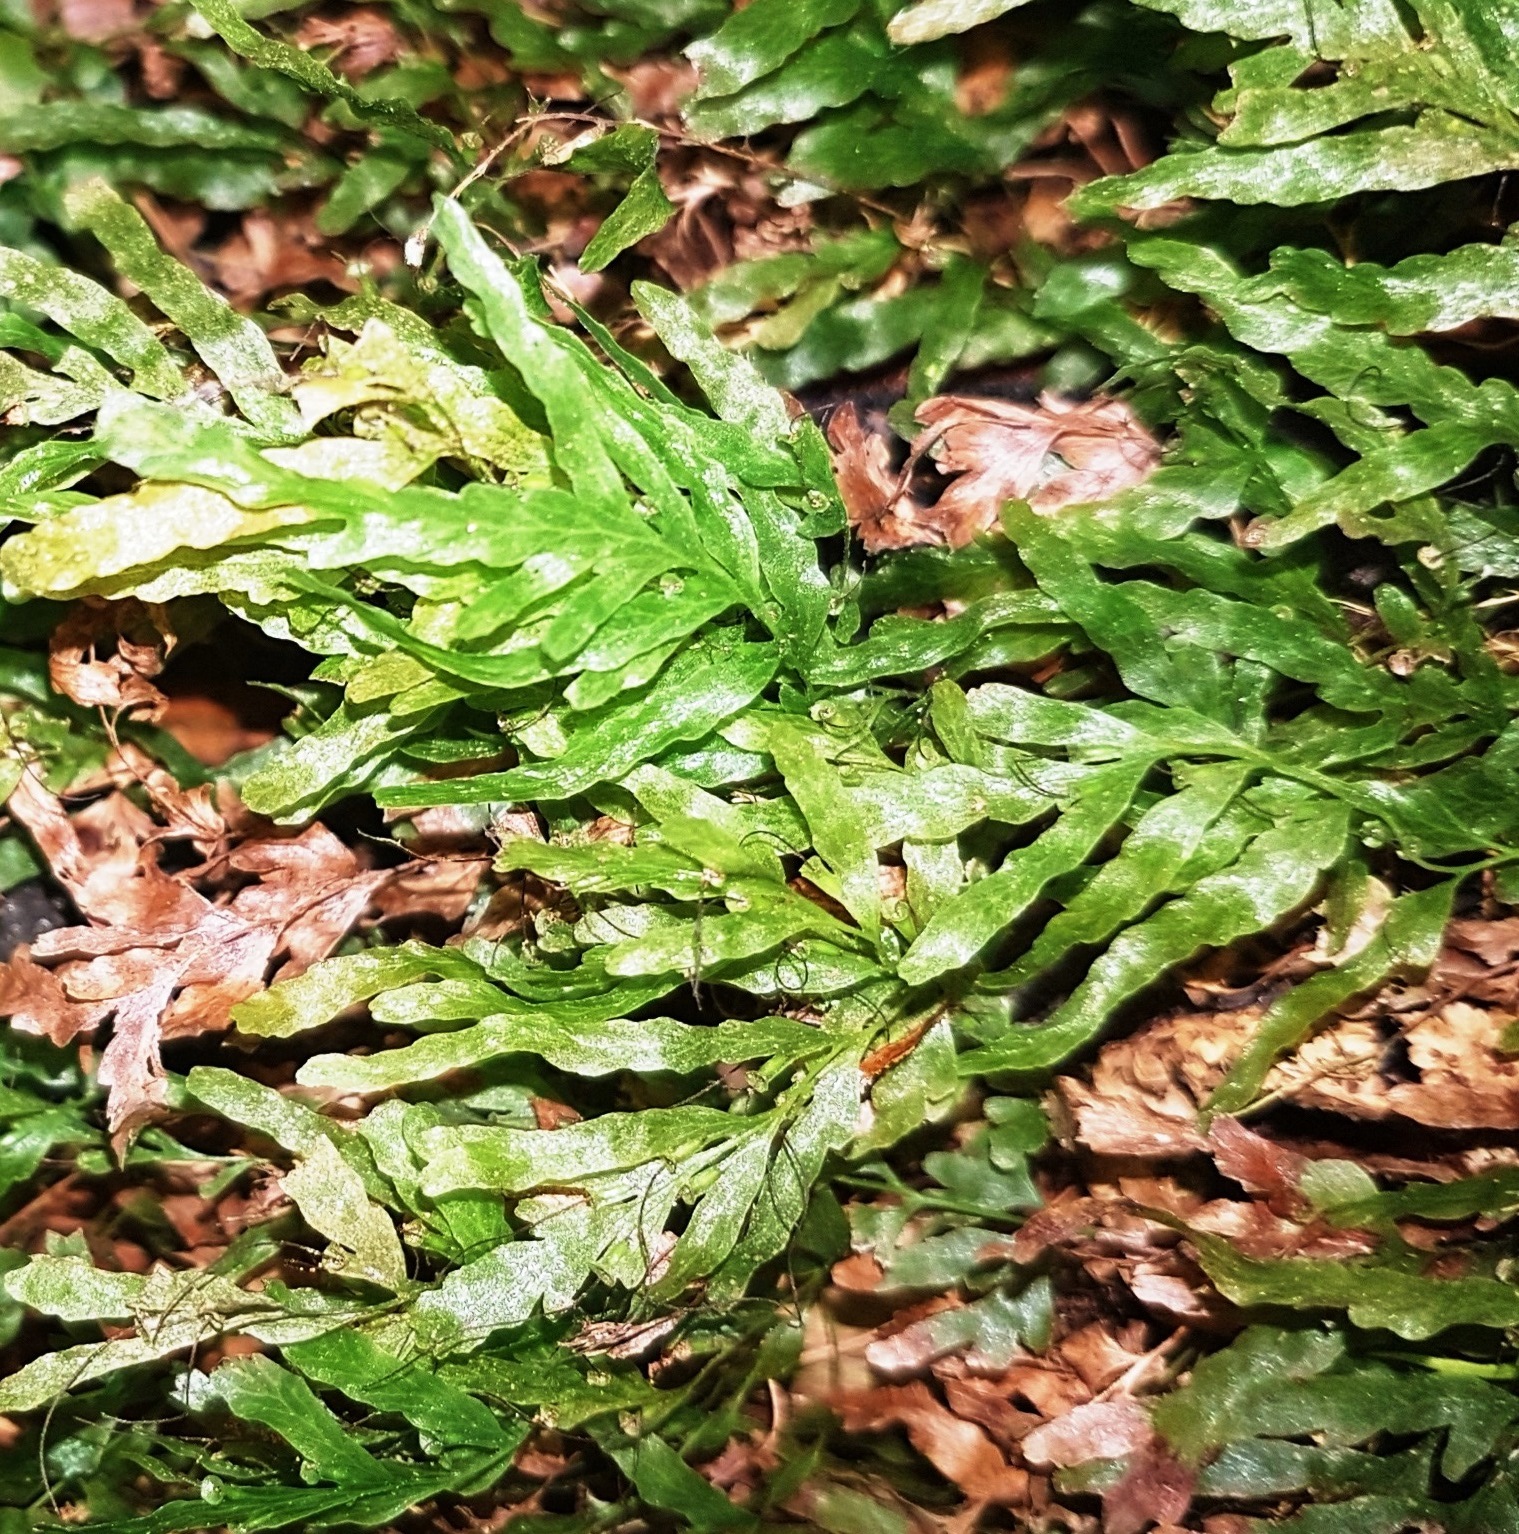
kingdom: Plantae
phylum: Tracheophyta
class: Polypodiopsida
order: Hymenophyllales
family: Hymenophyllaceae
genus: Polyphlebium
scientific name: Polyphlebium venosum
